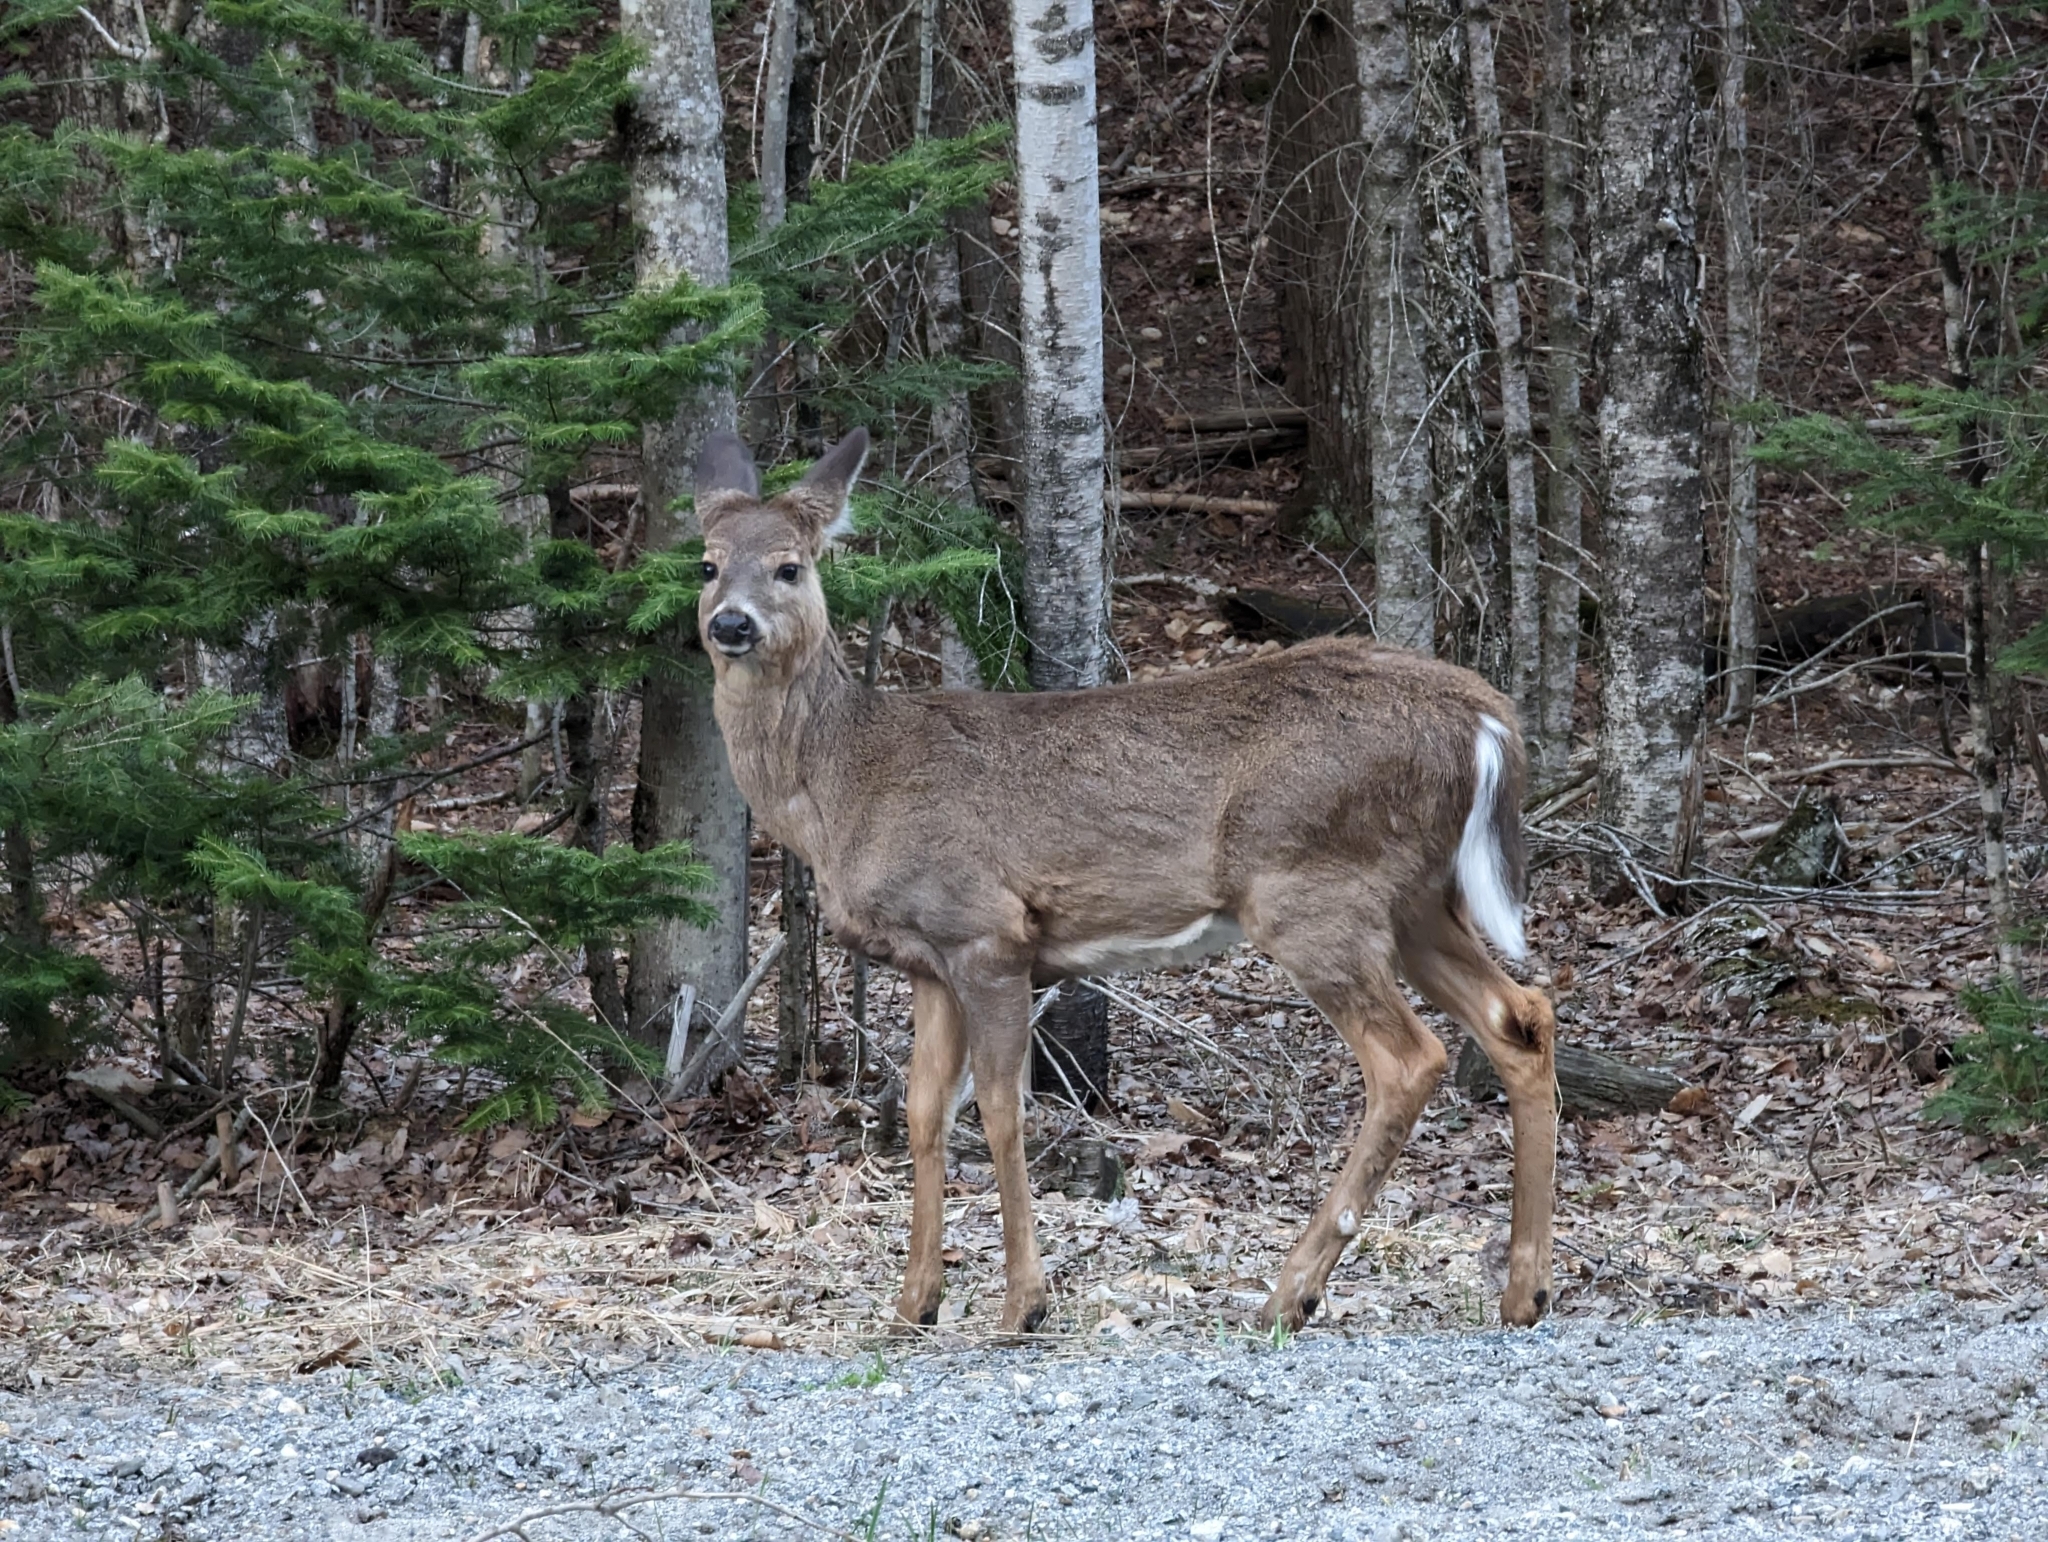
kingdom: Animalia
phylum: Chordata
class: Mammalia
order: Artiodactyla
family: Cervidae
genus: Odocoileus
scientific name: Odocoileus virginianus
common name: White-tailed deer
